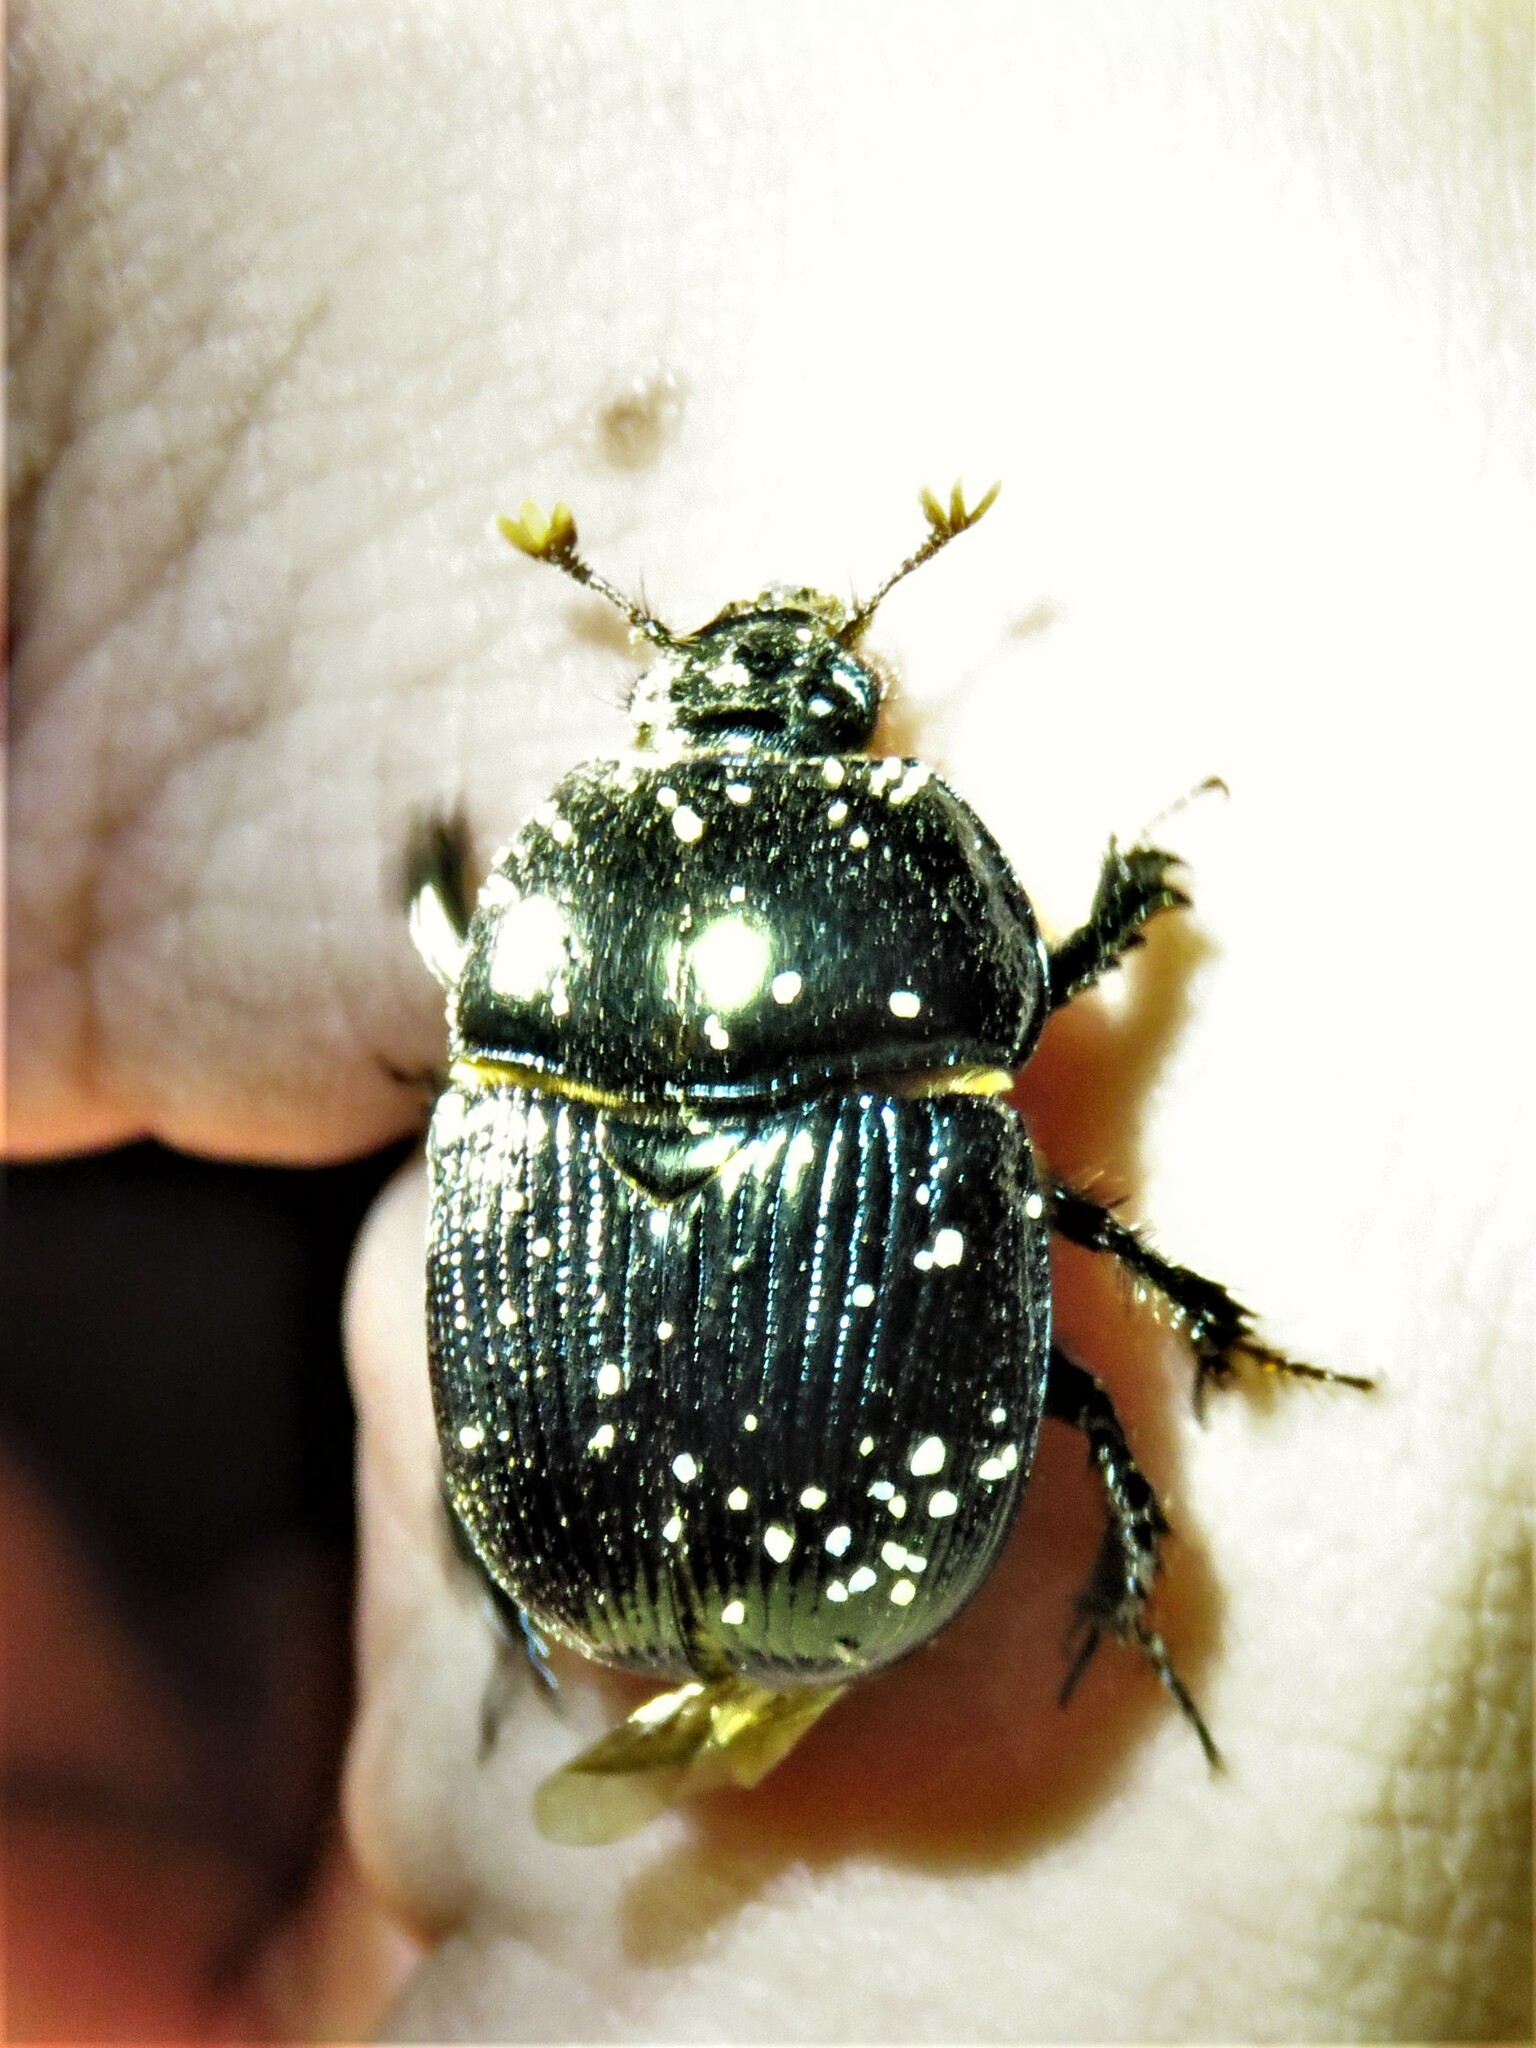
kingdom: Animalia
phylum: Arthropoda
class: Insecta
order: Coleoptera
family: Geotrupidae
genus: Geotrupes
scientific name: Geotrupes egeriei
